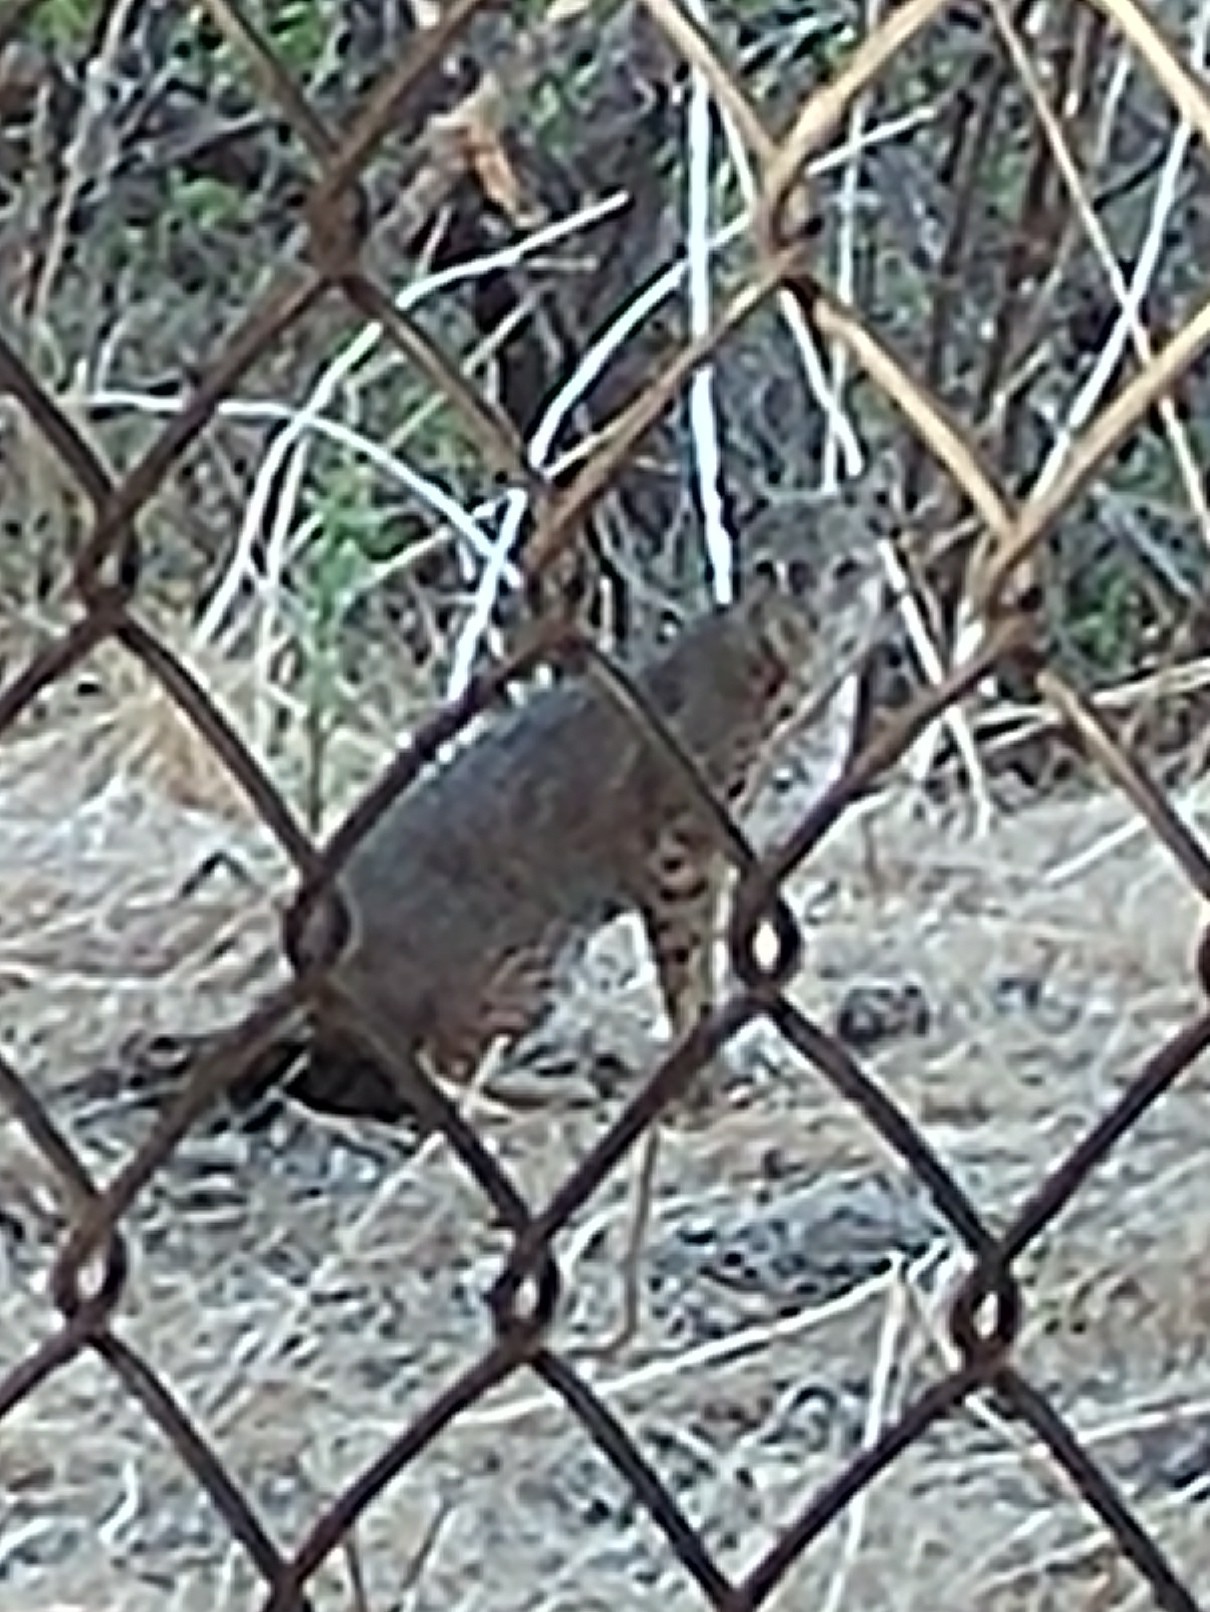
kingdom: Animalia
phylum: Chordata
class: Mammalia
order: Carnivora
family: Felidae
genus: Lynx
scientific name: Lynx rufus
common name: Bobcat
